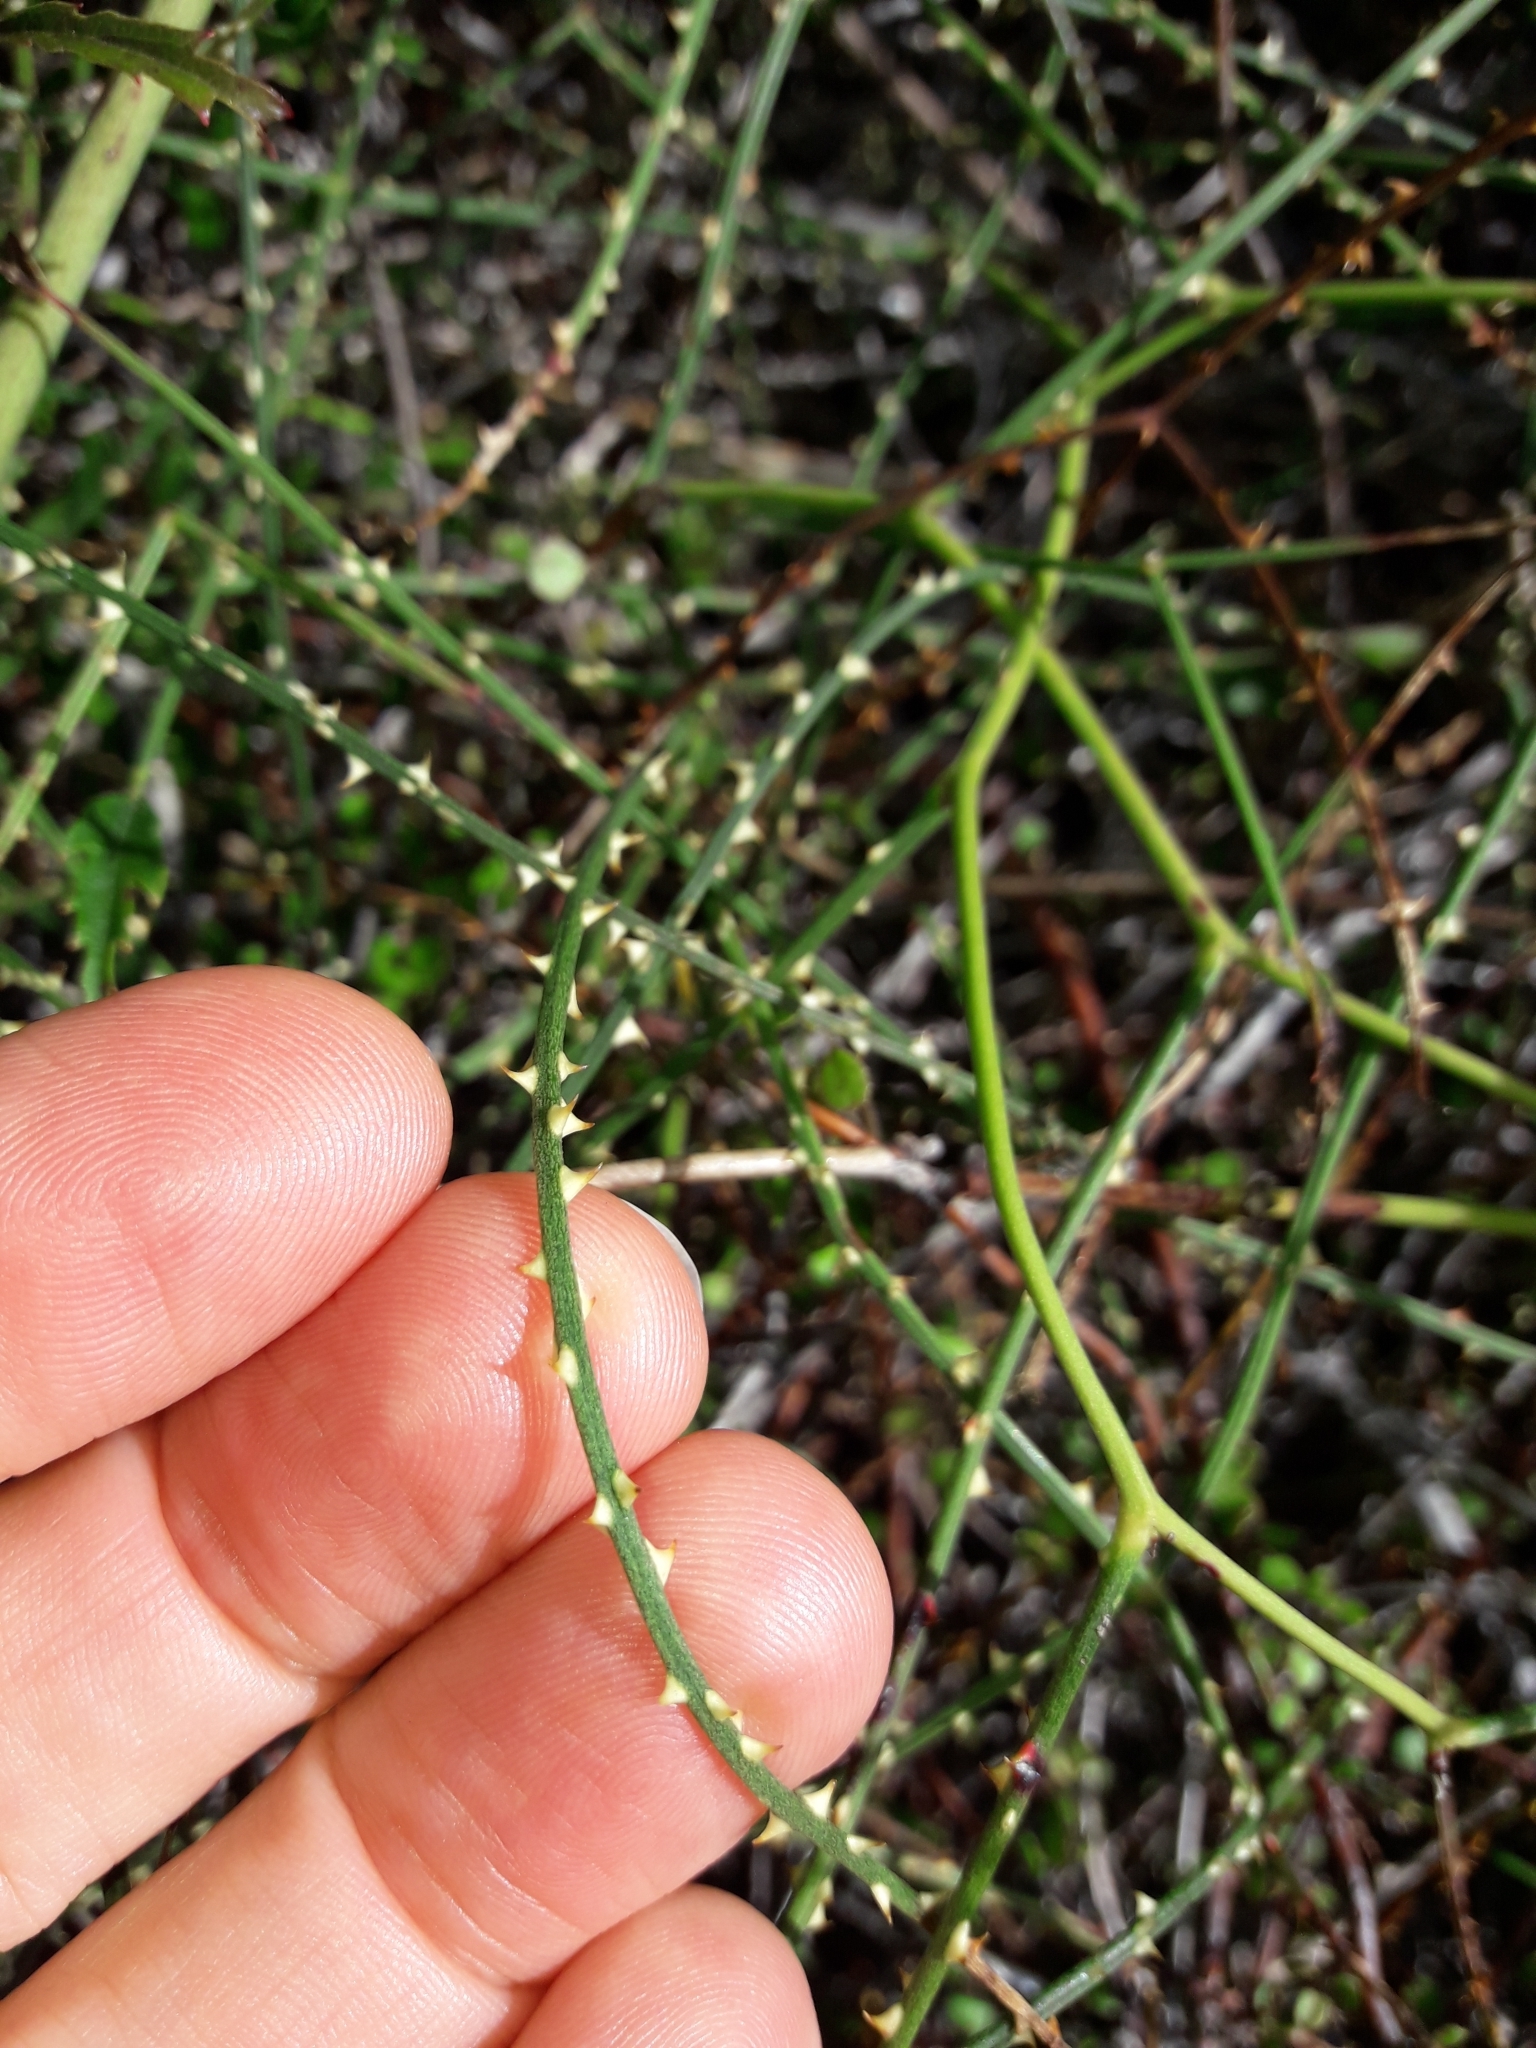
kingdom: Plantae
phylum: Tracheophyta
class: Magnoliopsida
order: Rosales
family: Rosaceae
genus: Rubus
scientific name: Rubus squarrosus
